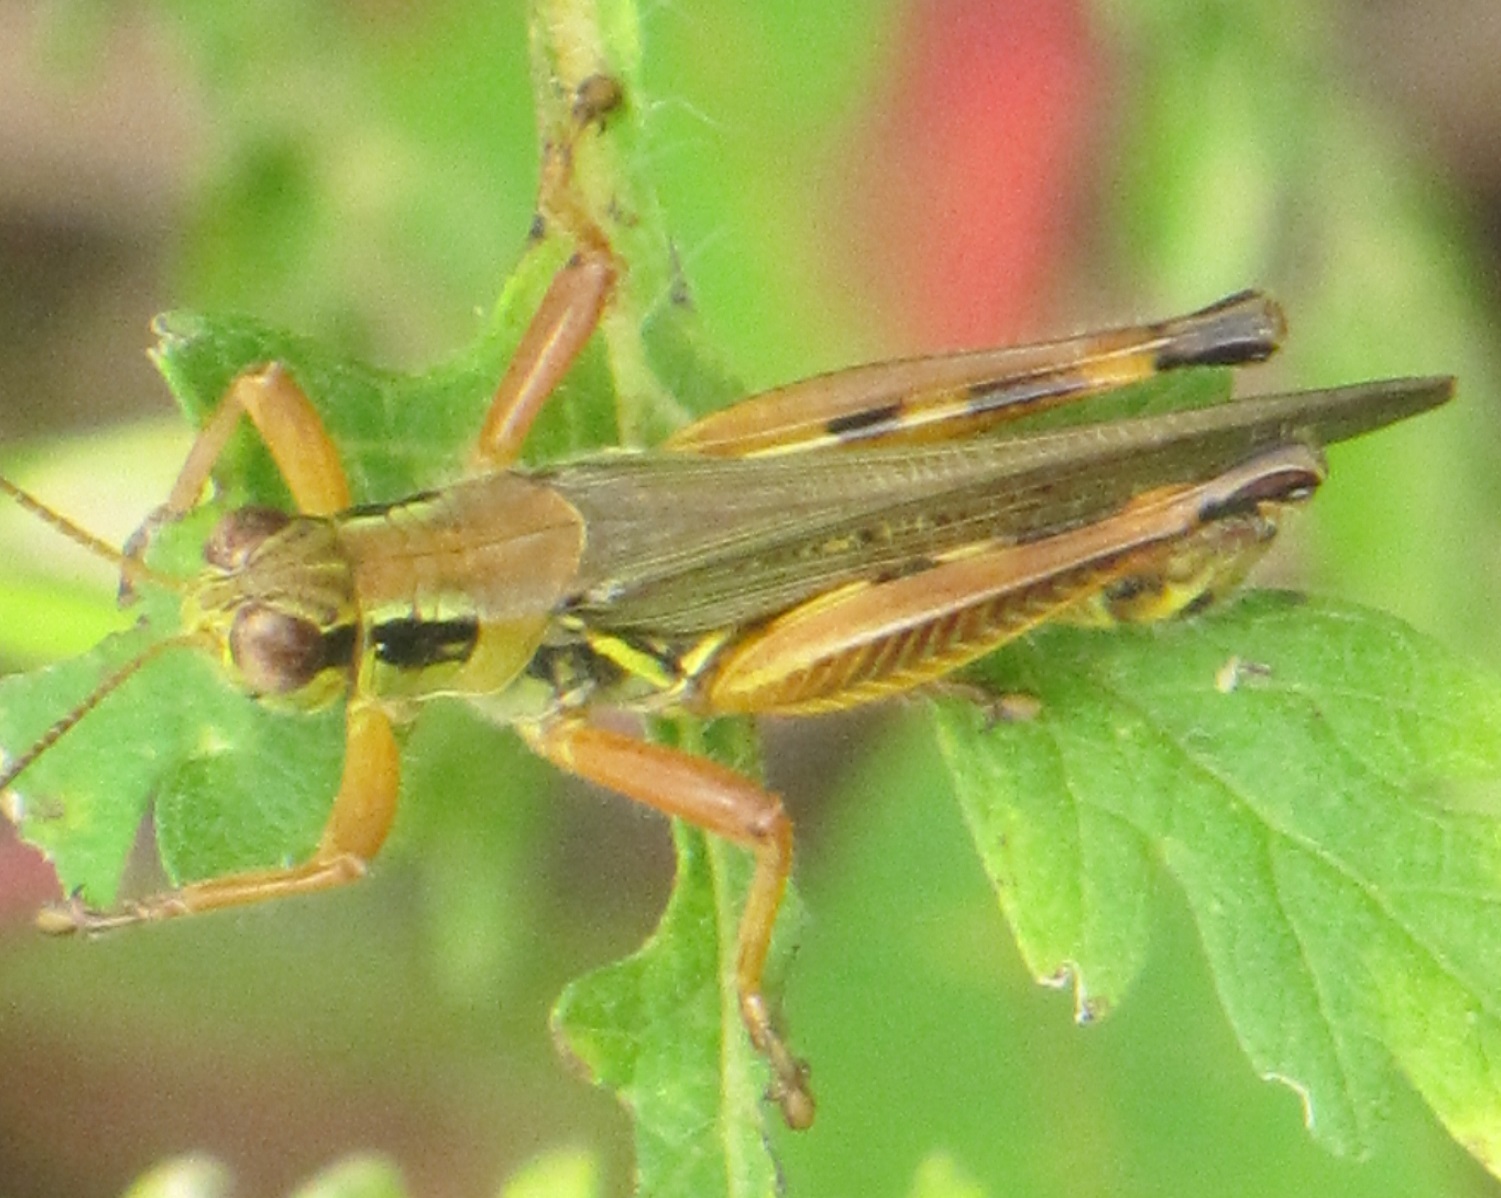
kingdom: Animalia
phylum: Arthropoda
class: Insecta
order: Orthoptera
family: Acrididae
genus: Melanoplus
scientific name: Melanoplus femurrubrum
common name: Red-legged grasshopper
